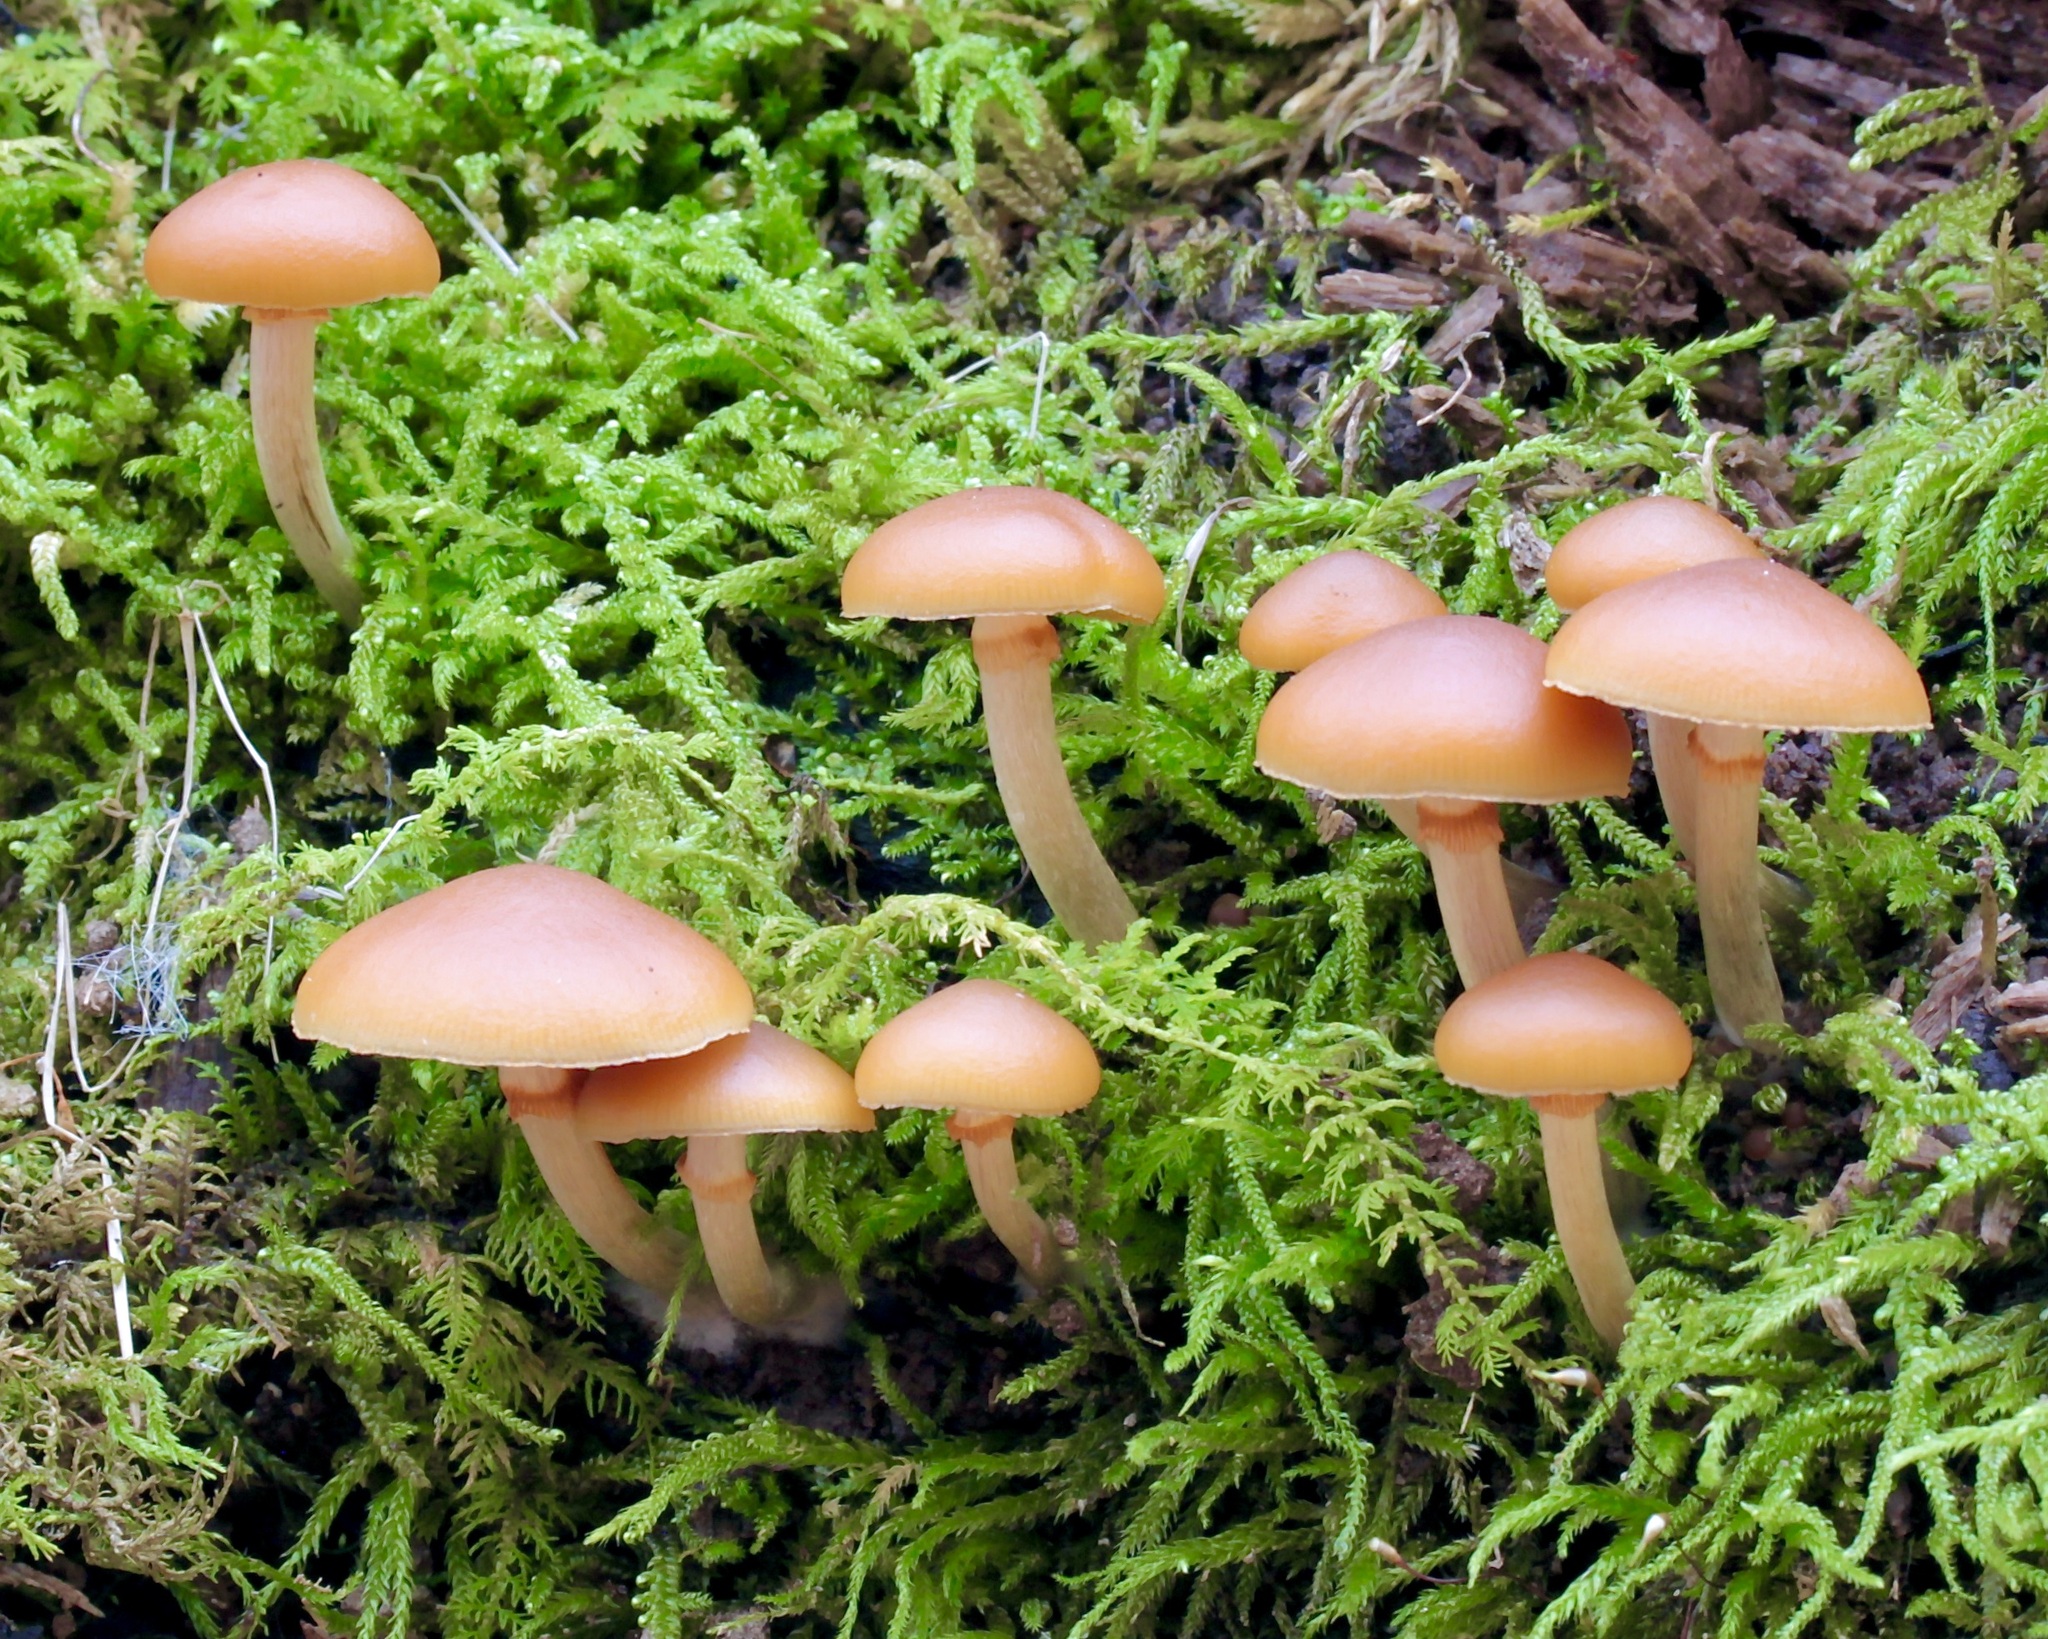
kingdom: Fungi
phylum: Basidiomycota
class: Agaricomycetes
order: Agaricales
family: Hymenogastraceae
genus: Galerina
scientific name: Galerina marginata
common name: Funeral bell
